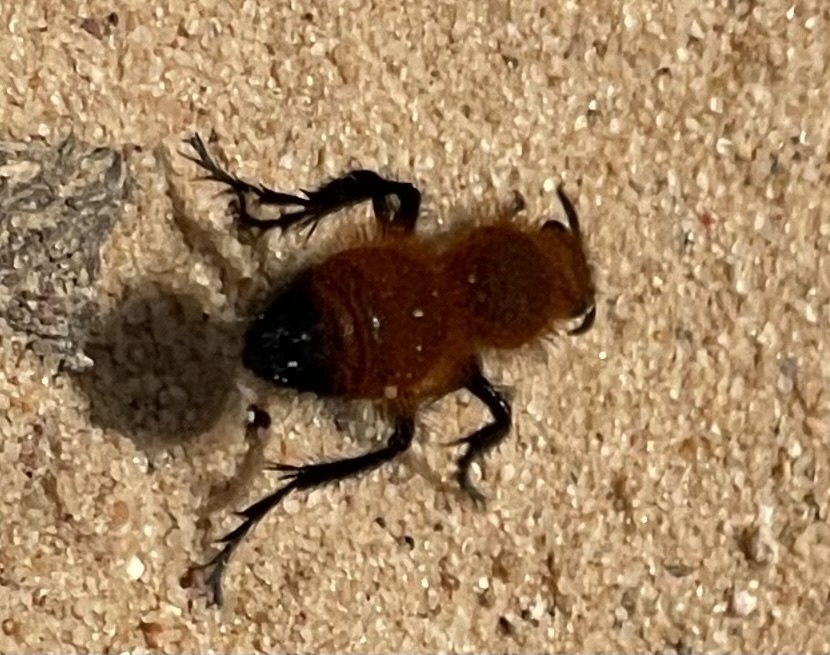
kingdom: Animalia
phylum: Arthropoda
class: Insecta
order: Hymenoptera
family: Mutillidae
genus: Dasymutilla
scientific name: Dasymutilla
